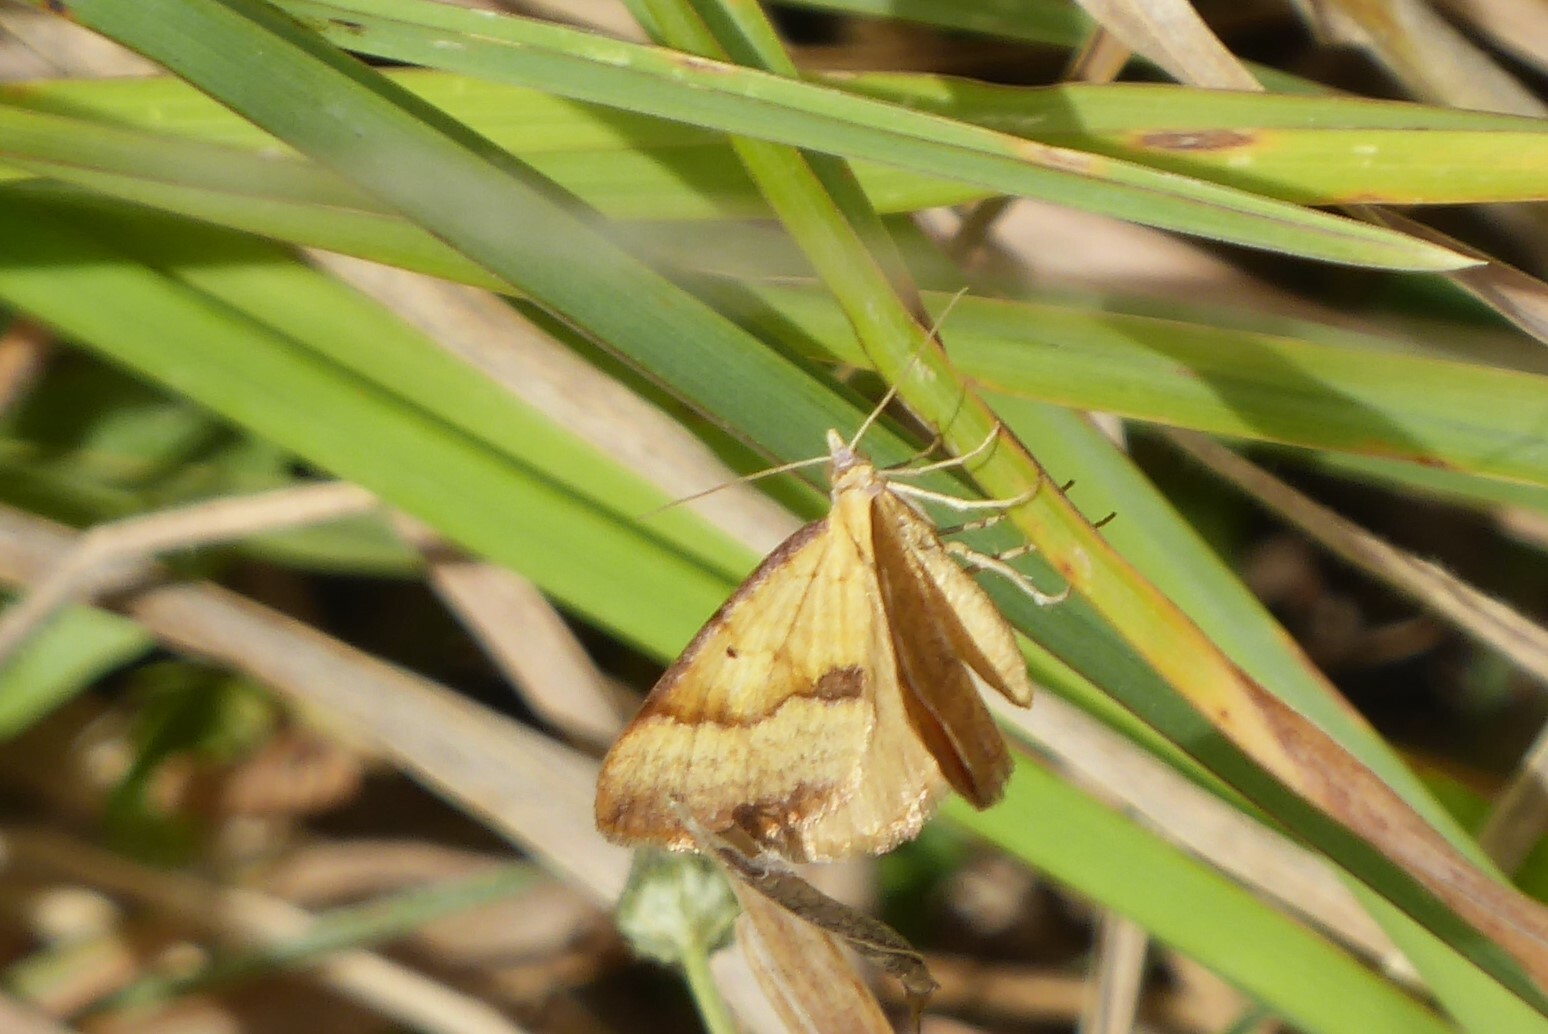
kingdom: Animalia
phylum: Arthropoda
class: Insecta
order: Lepidoptera
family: Geometridae
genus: Anachloris
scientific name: Anachloris subochraria
